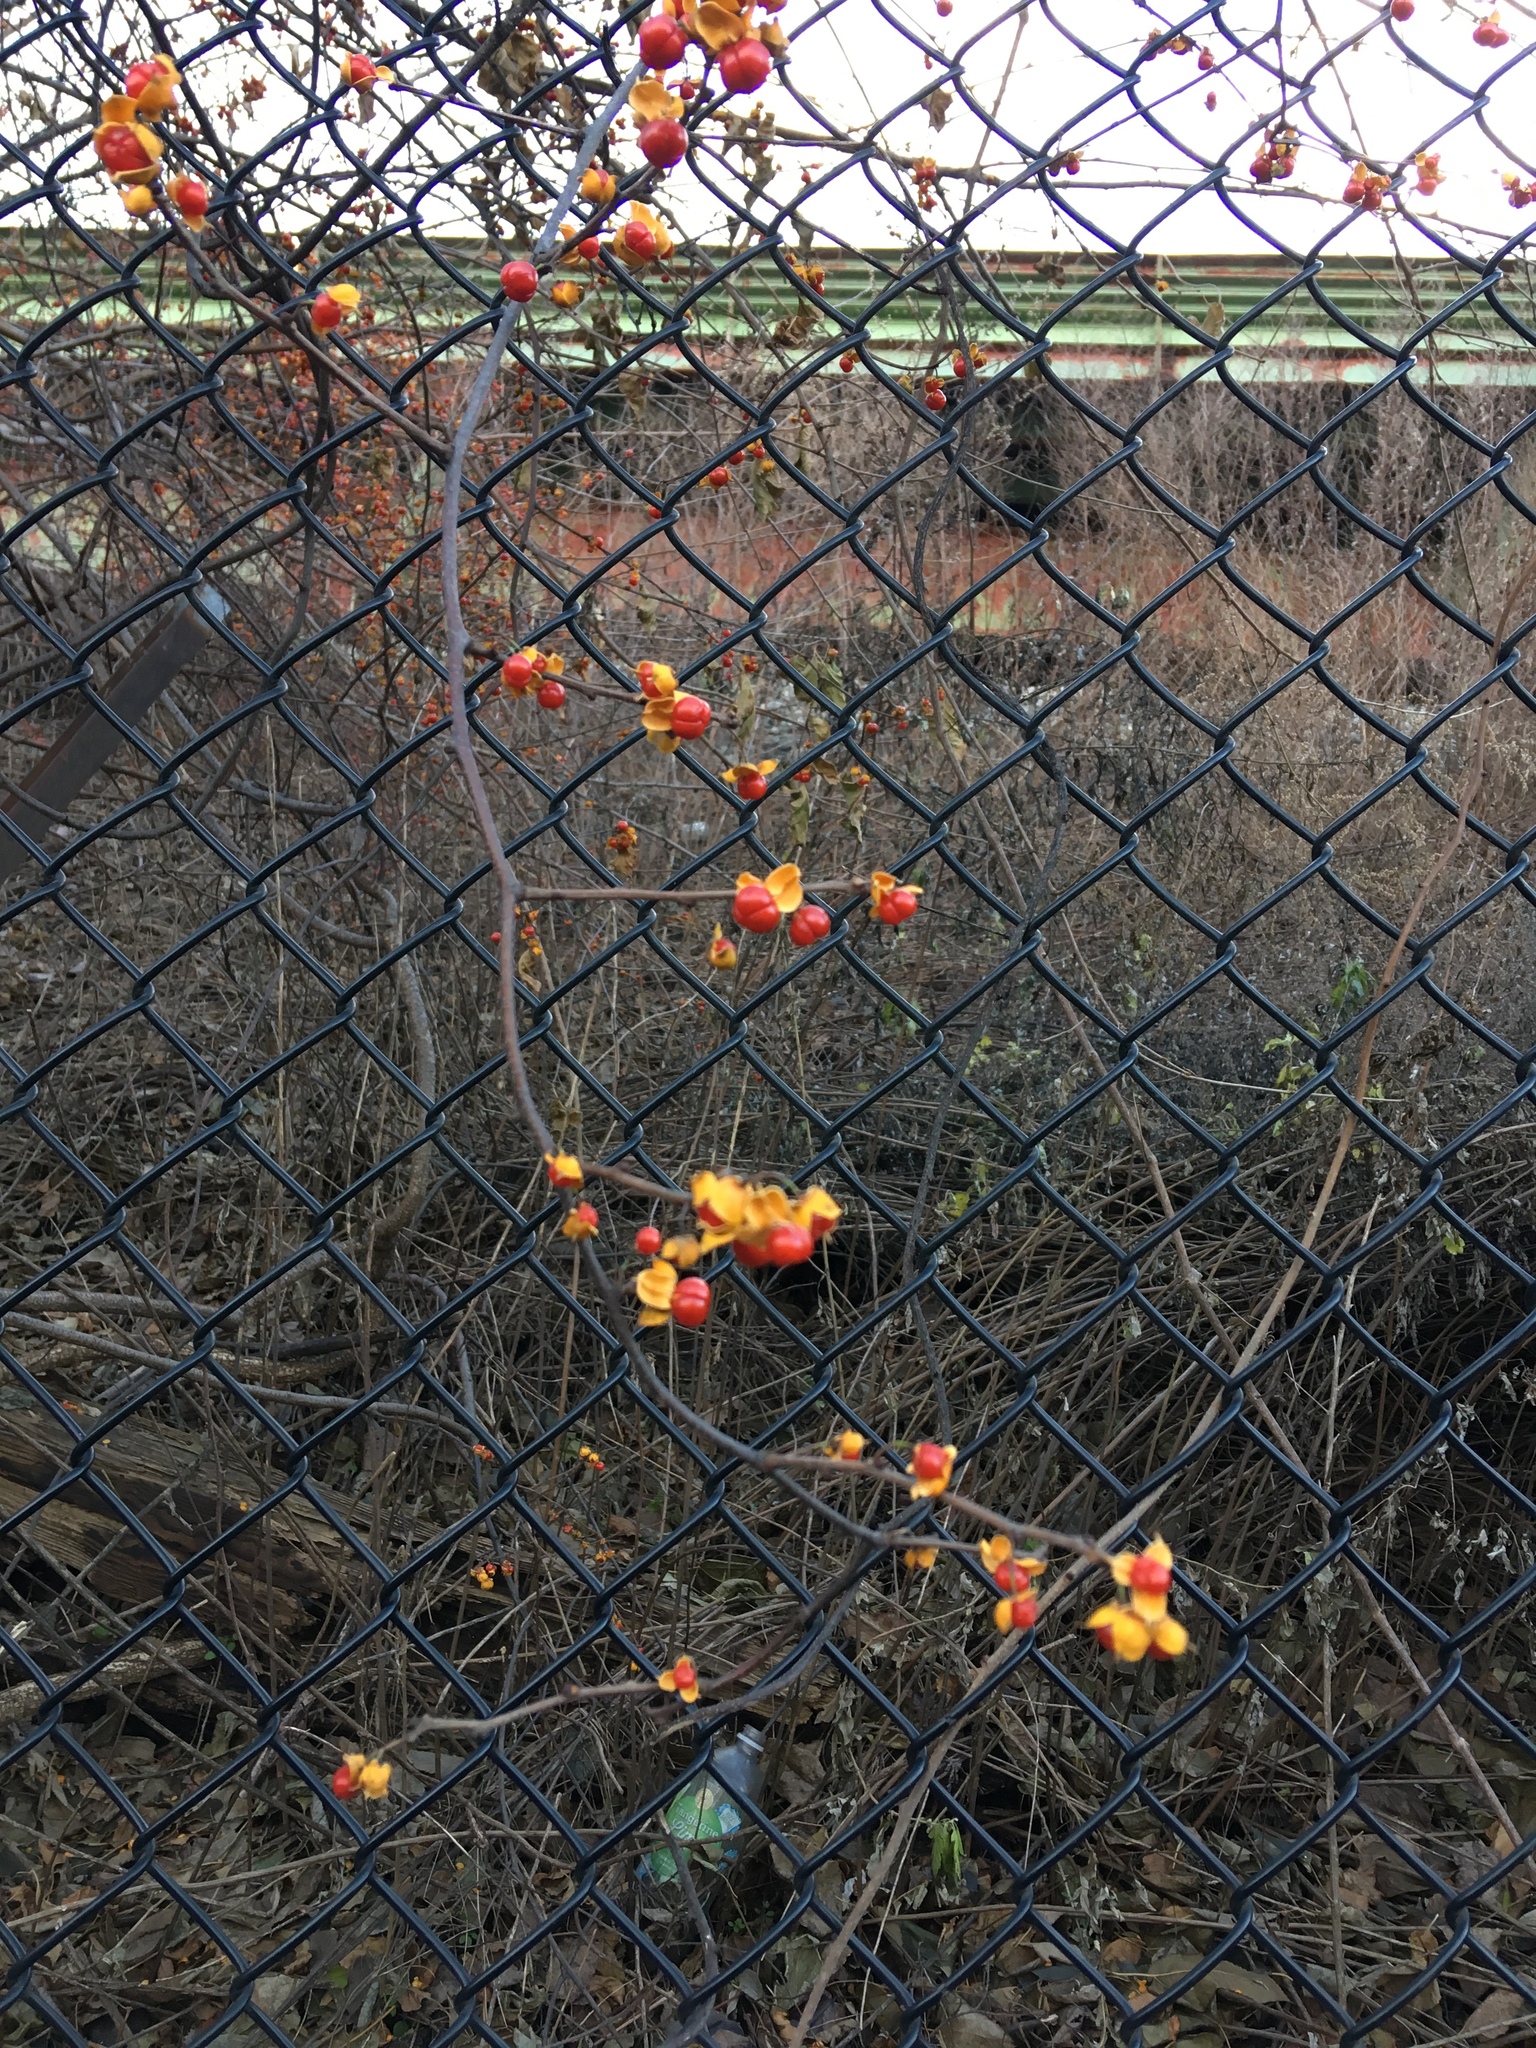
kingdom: Plantae
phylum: Tracheophyta
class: Magnoliopsida
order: Celastrales
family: Celastraceae
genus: Celastrus
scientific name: Celastrus orbiculatus
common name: Oriental bittersweet
